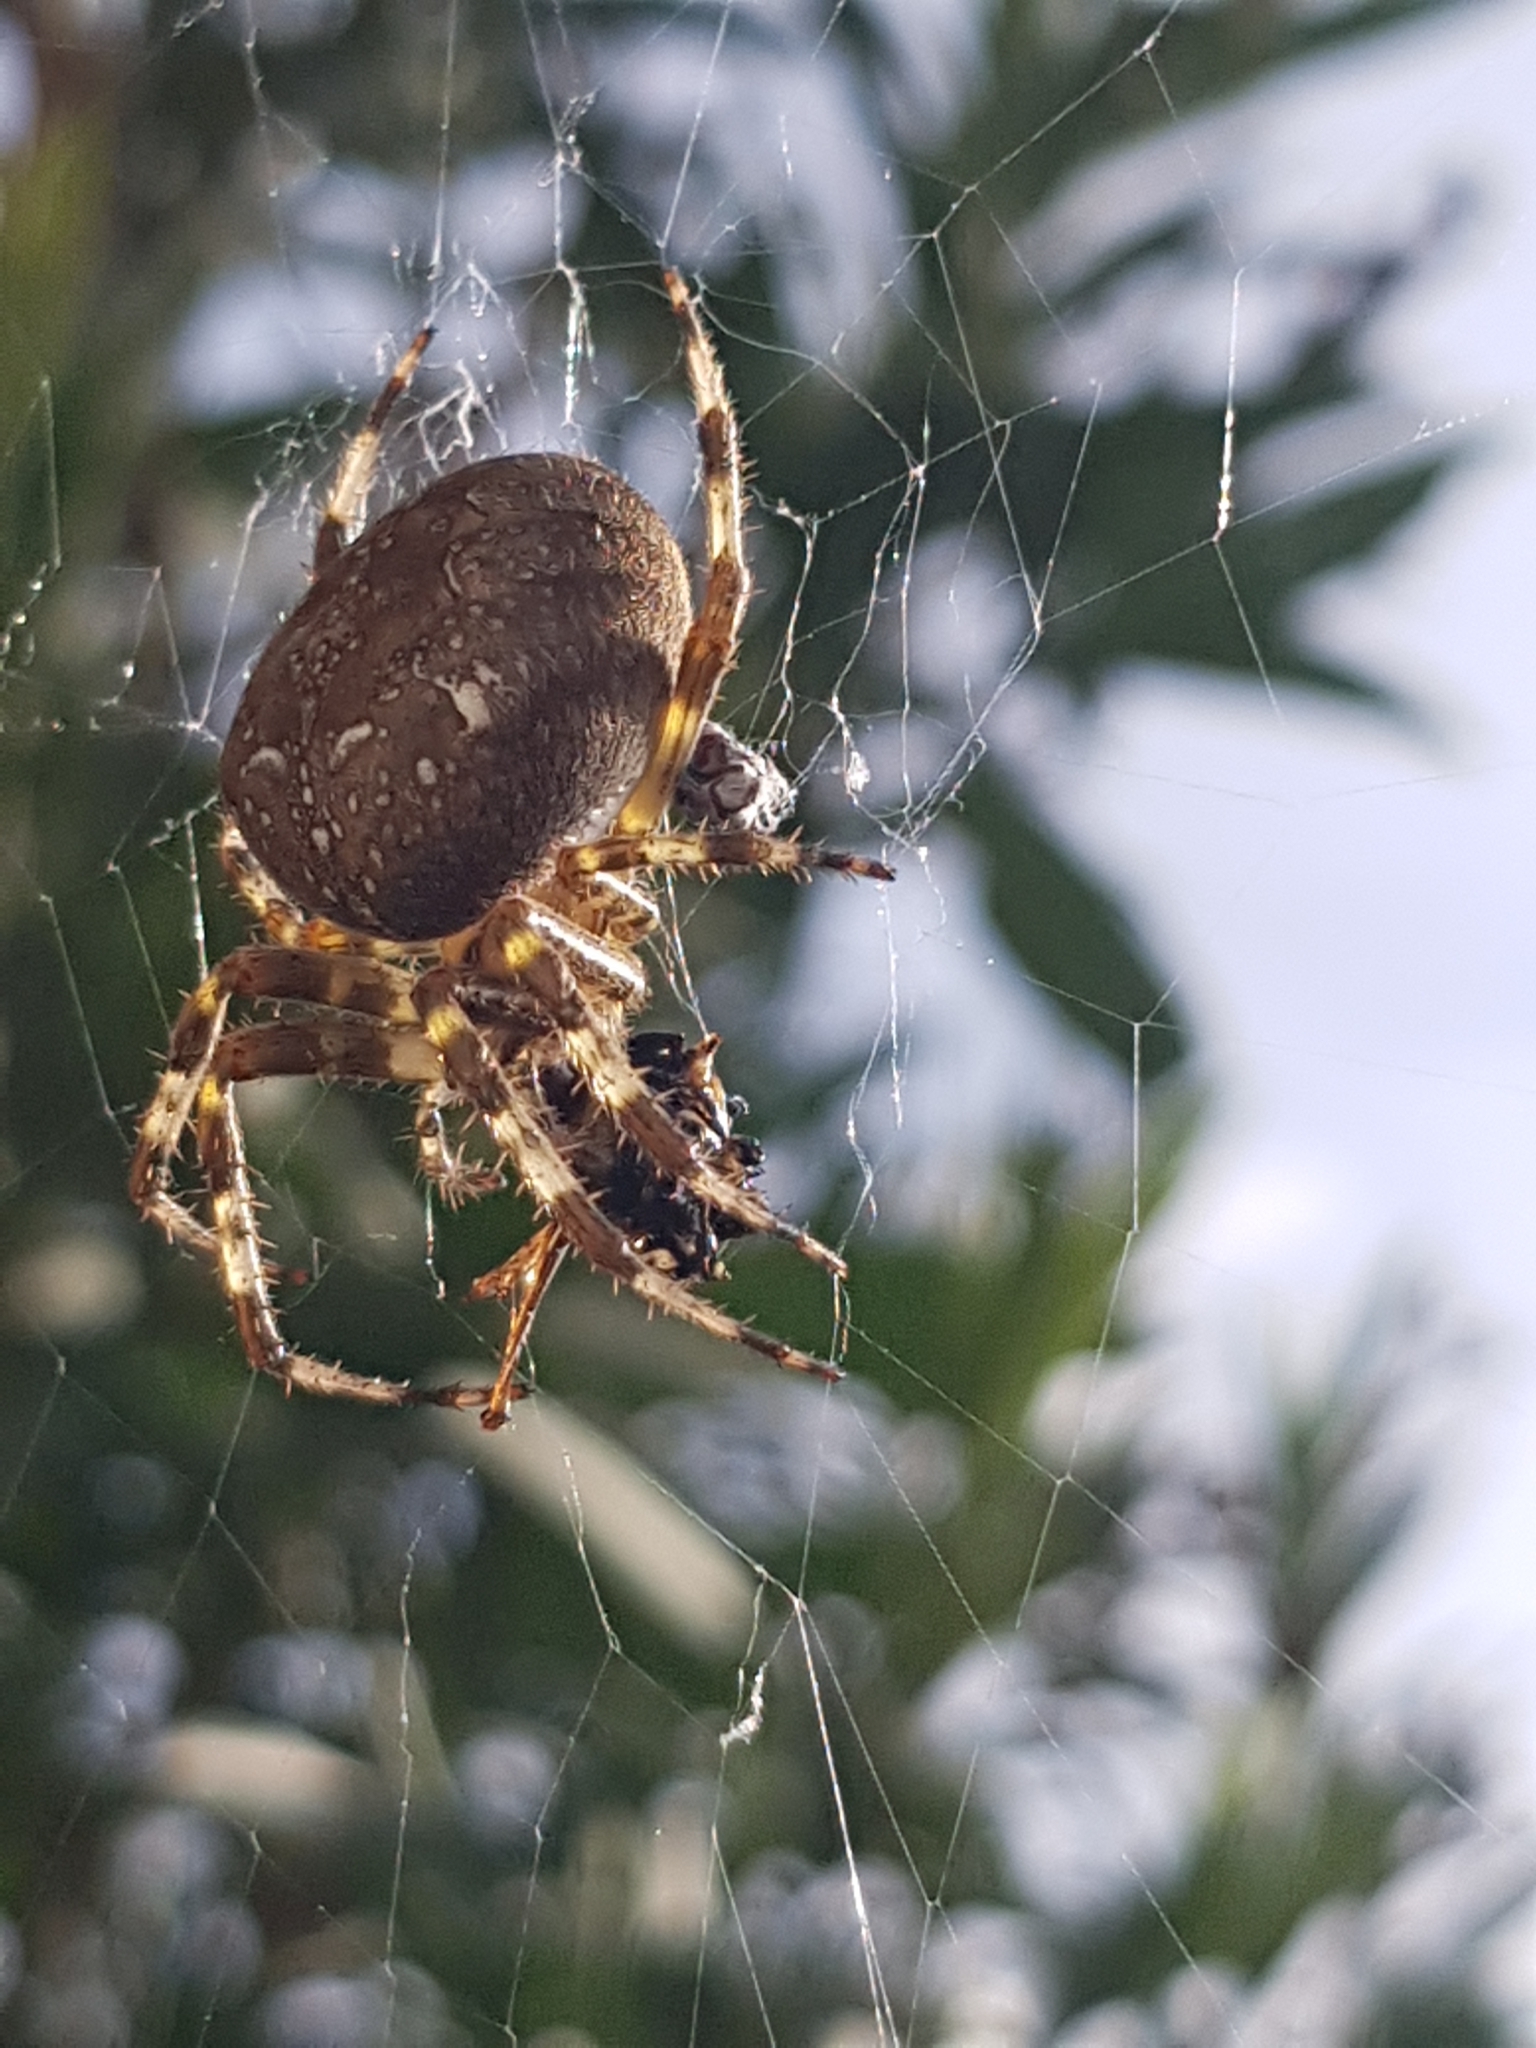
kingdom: Animalia
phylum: Arthropoda
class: Arachnida
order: Araneae
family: Araneidae
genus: Araneus
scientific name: Araneus diadematus
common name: Cross orbweaver
